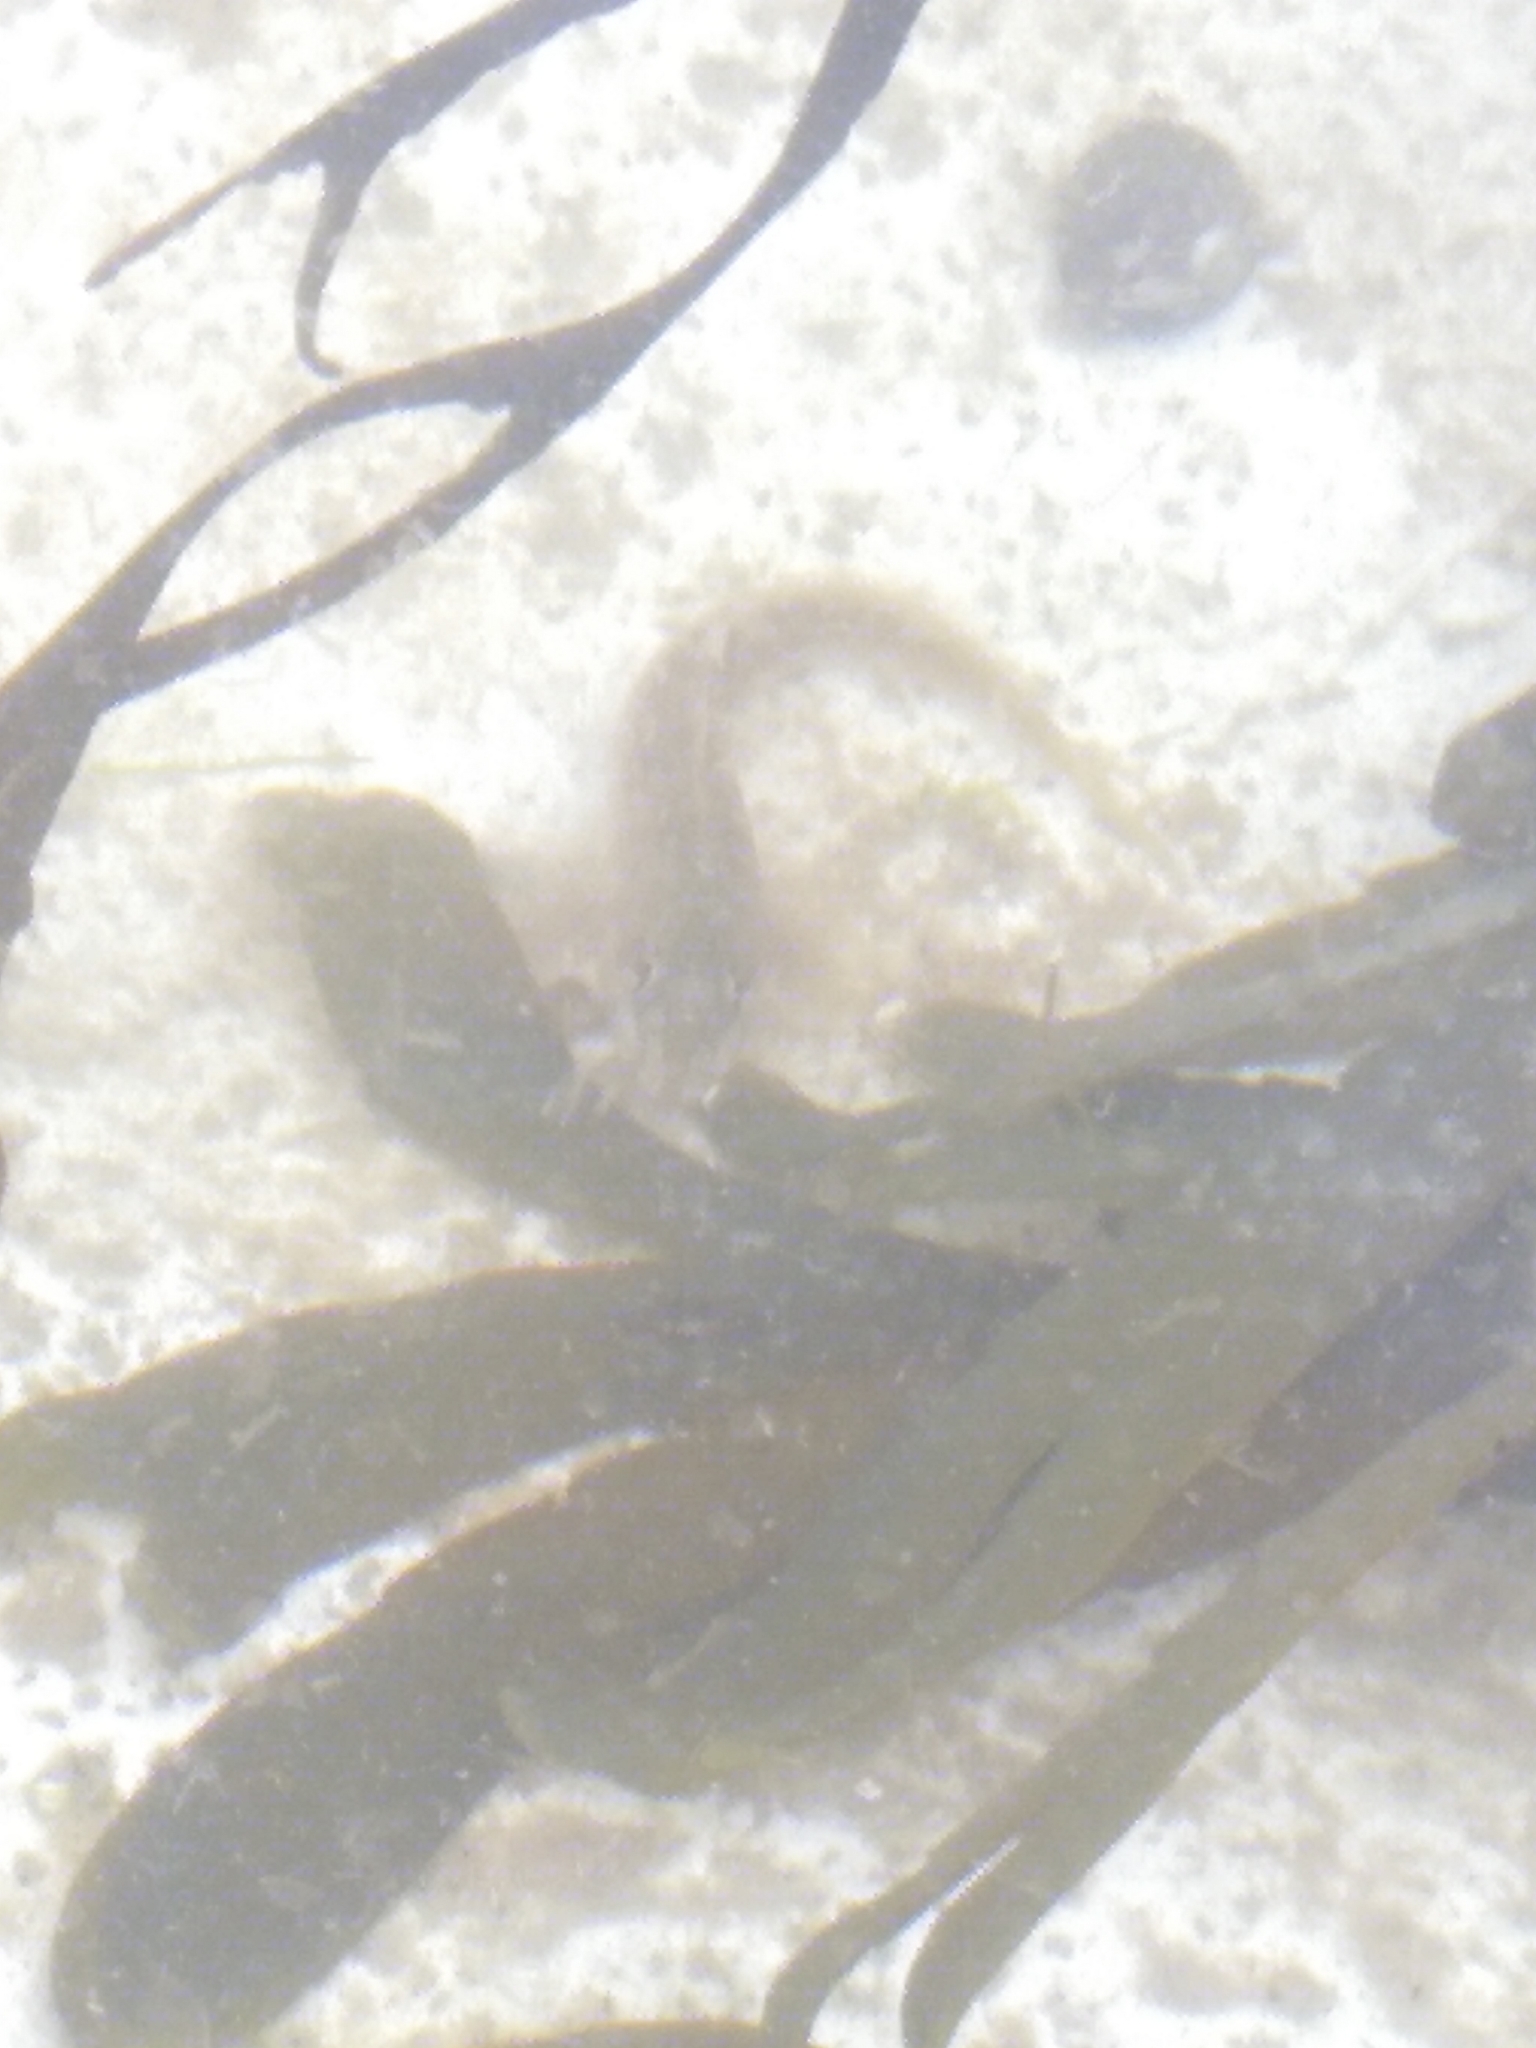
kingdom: Animalia
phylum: Chordata
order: Perciformes
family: Blenniidae
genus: Lipophrys
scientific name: Lipophrys pholis
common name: Shanny
